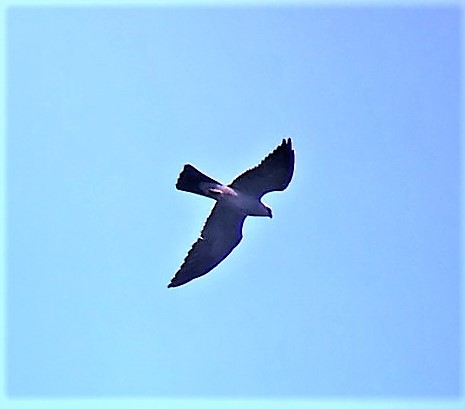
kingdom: Animalia
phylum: Chordata
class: Aves
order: Accipitriformes
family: Accipitridae
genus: Ictinia
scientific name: Ictinia mississippiensis
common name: Mississippi kite
